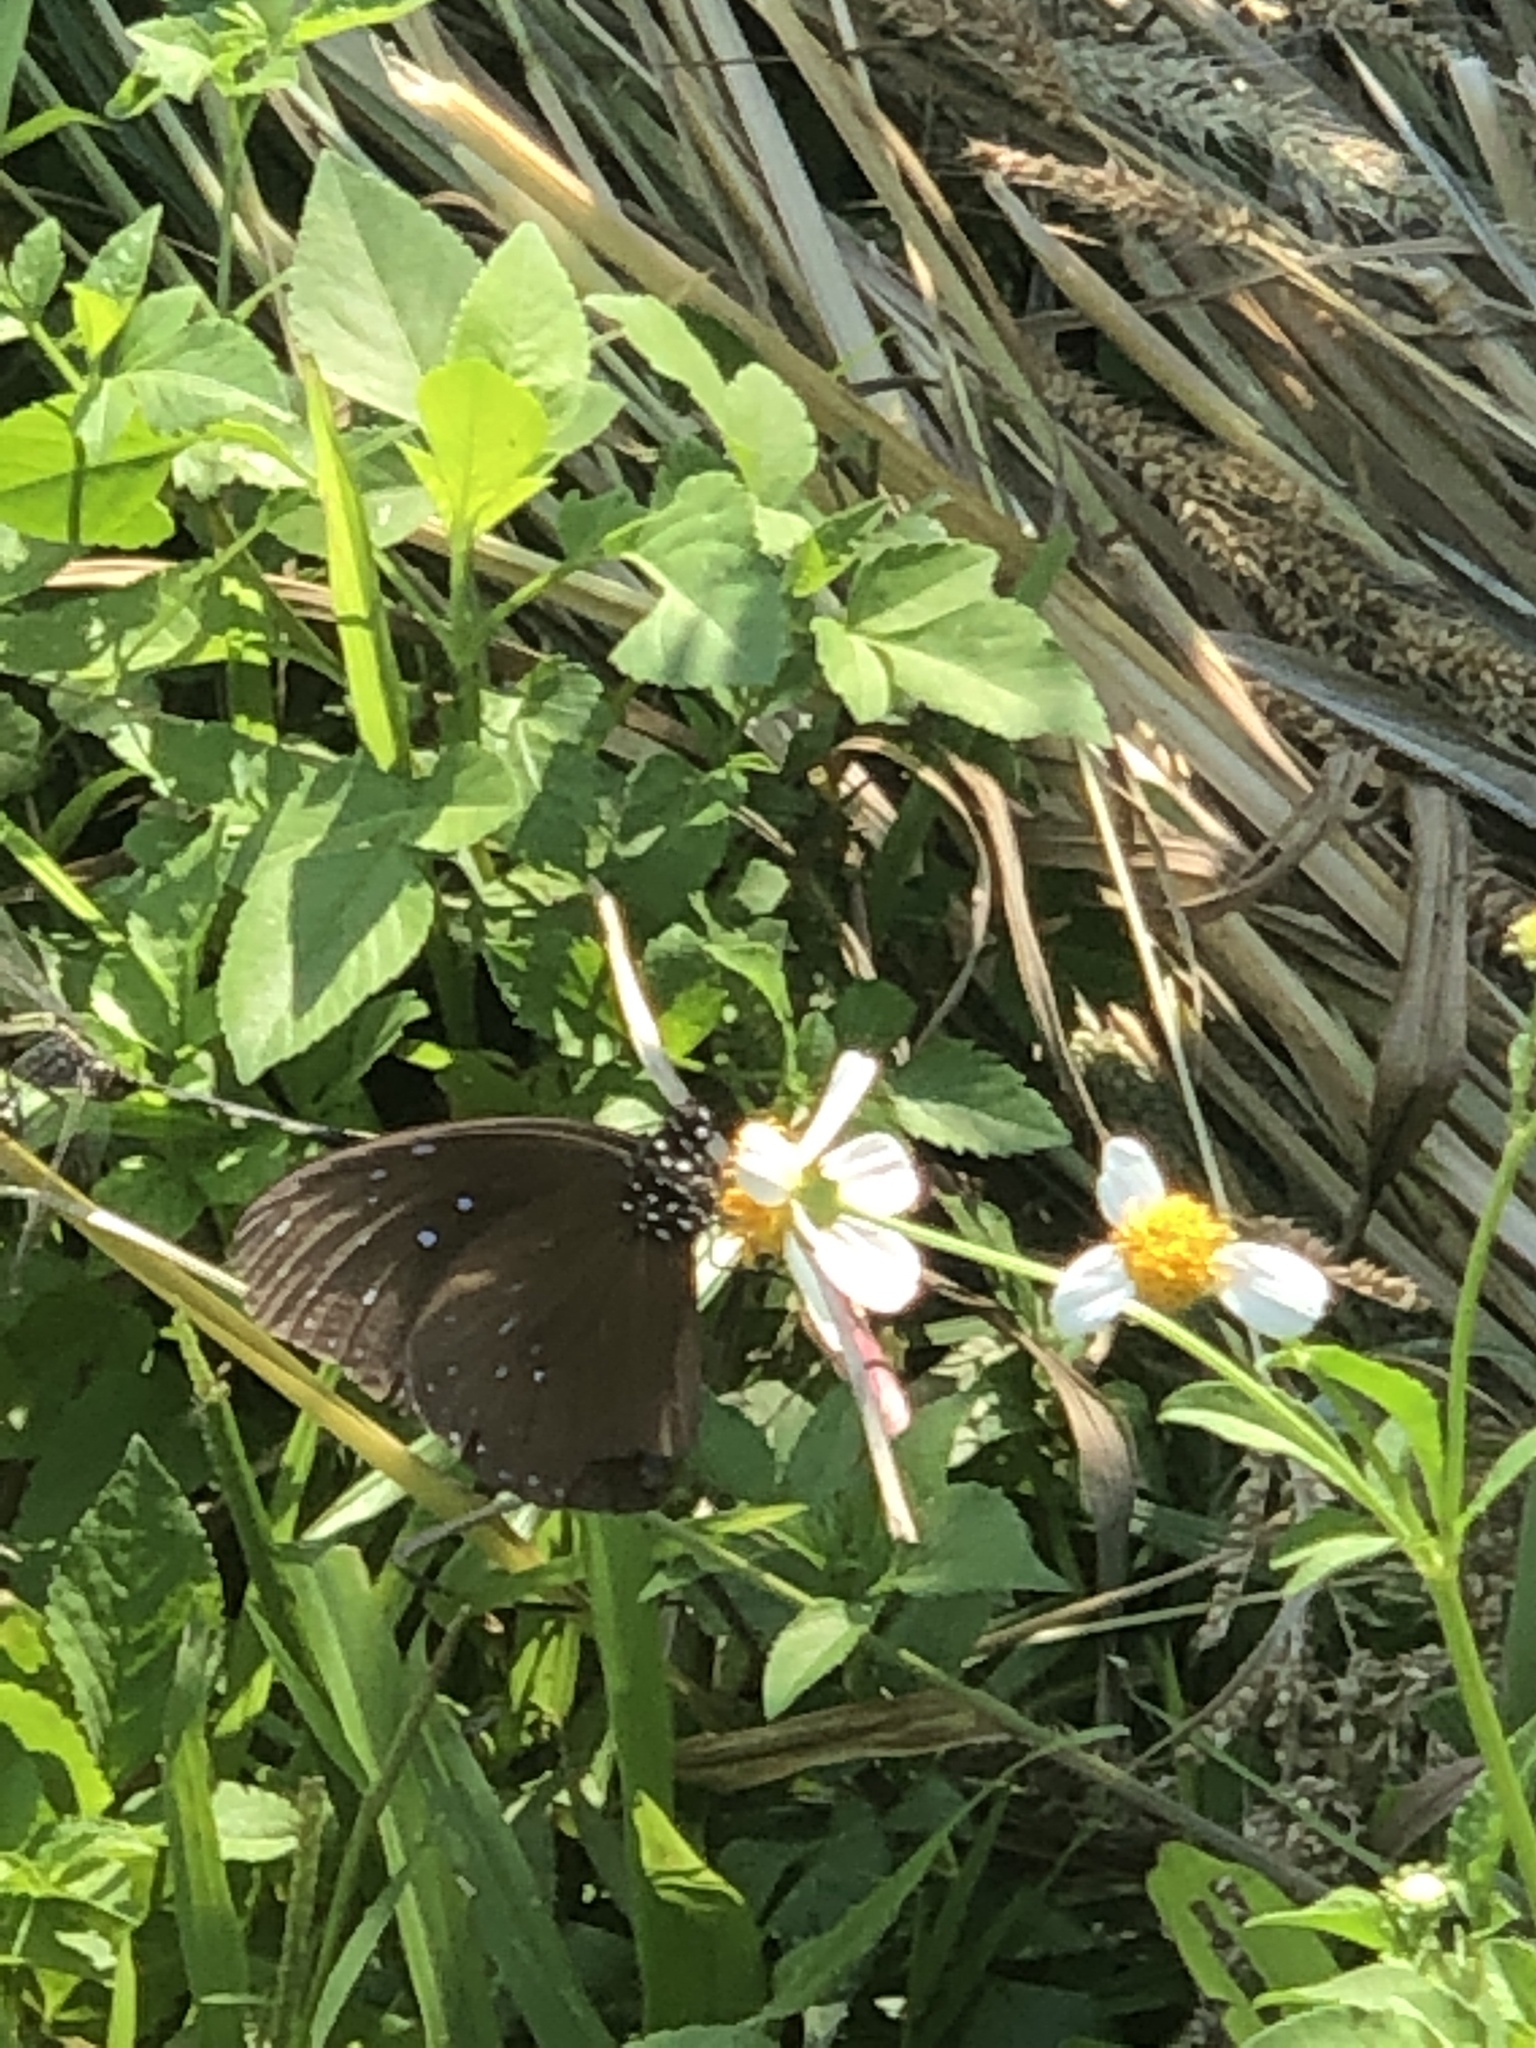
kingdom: Animalia
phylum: Arthropoda
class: Insecta
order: Lepidoptera
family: Nymphalidae
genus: Euploea
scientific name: Euploea tulliolus
